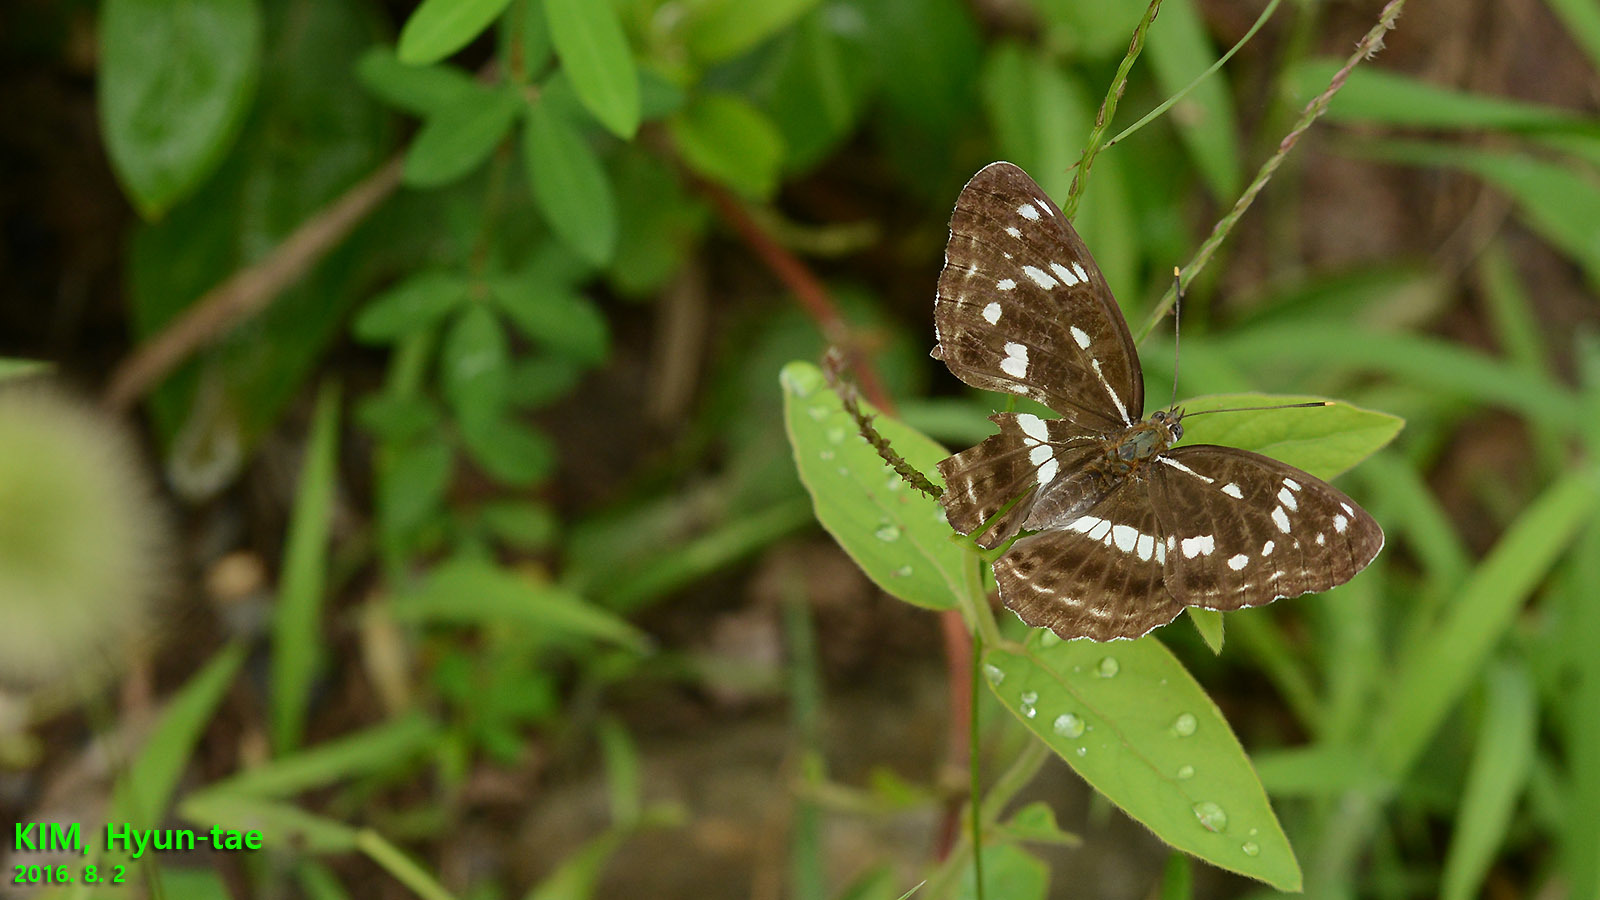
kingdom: Animalia
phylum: Arthropoda
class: Insecta
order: Lepidoptera
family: Nymphalidae
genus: Limenitis
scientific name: Limenitis helmanni
